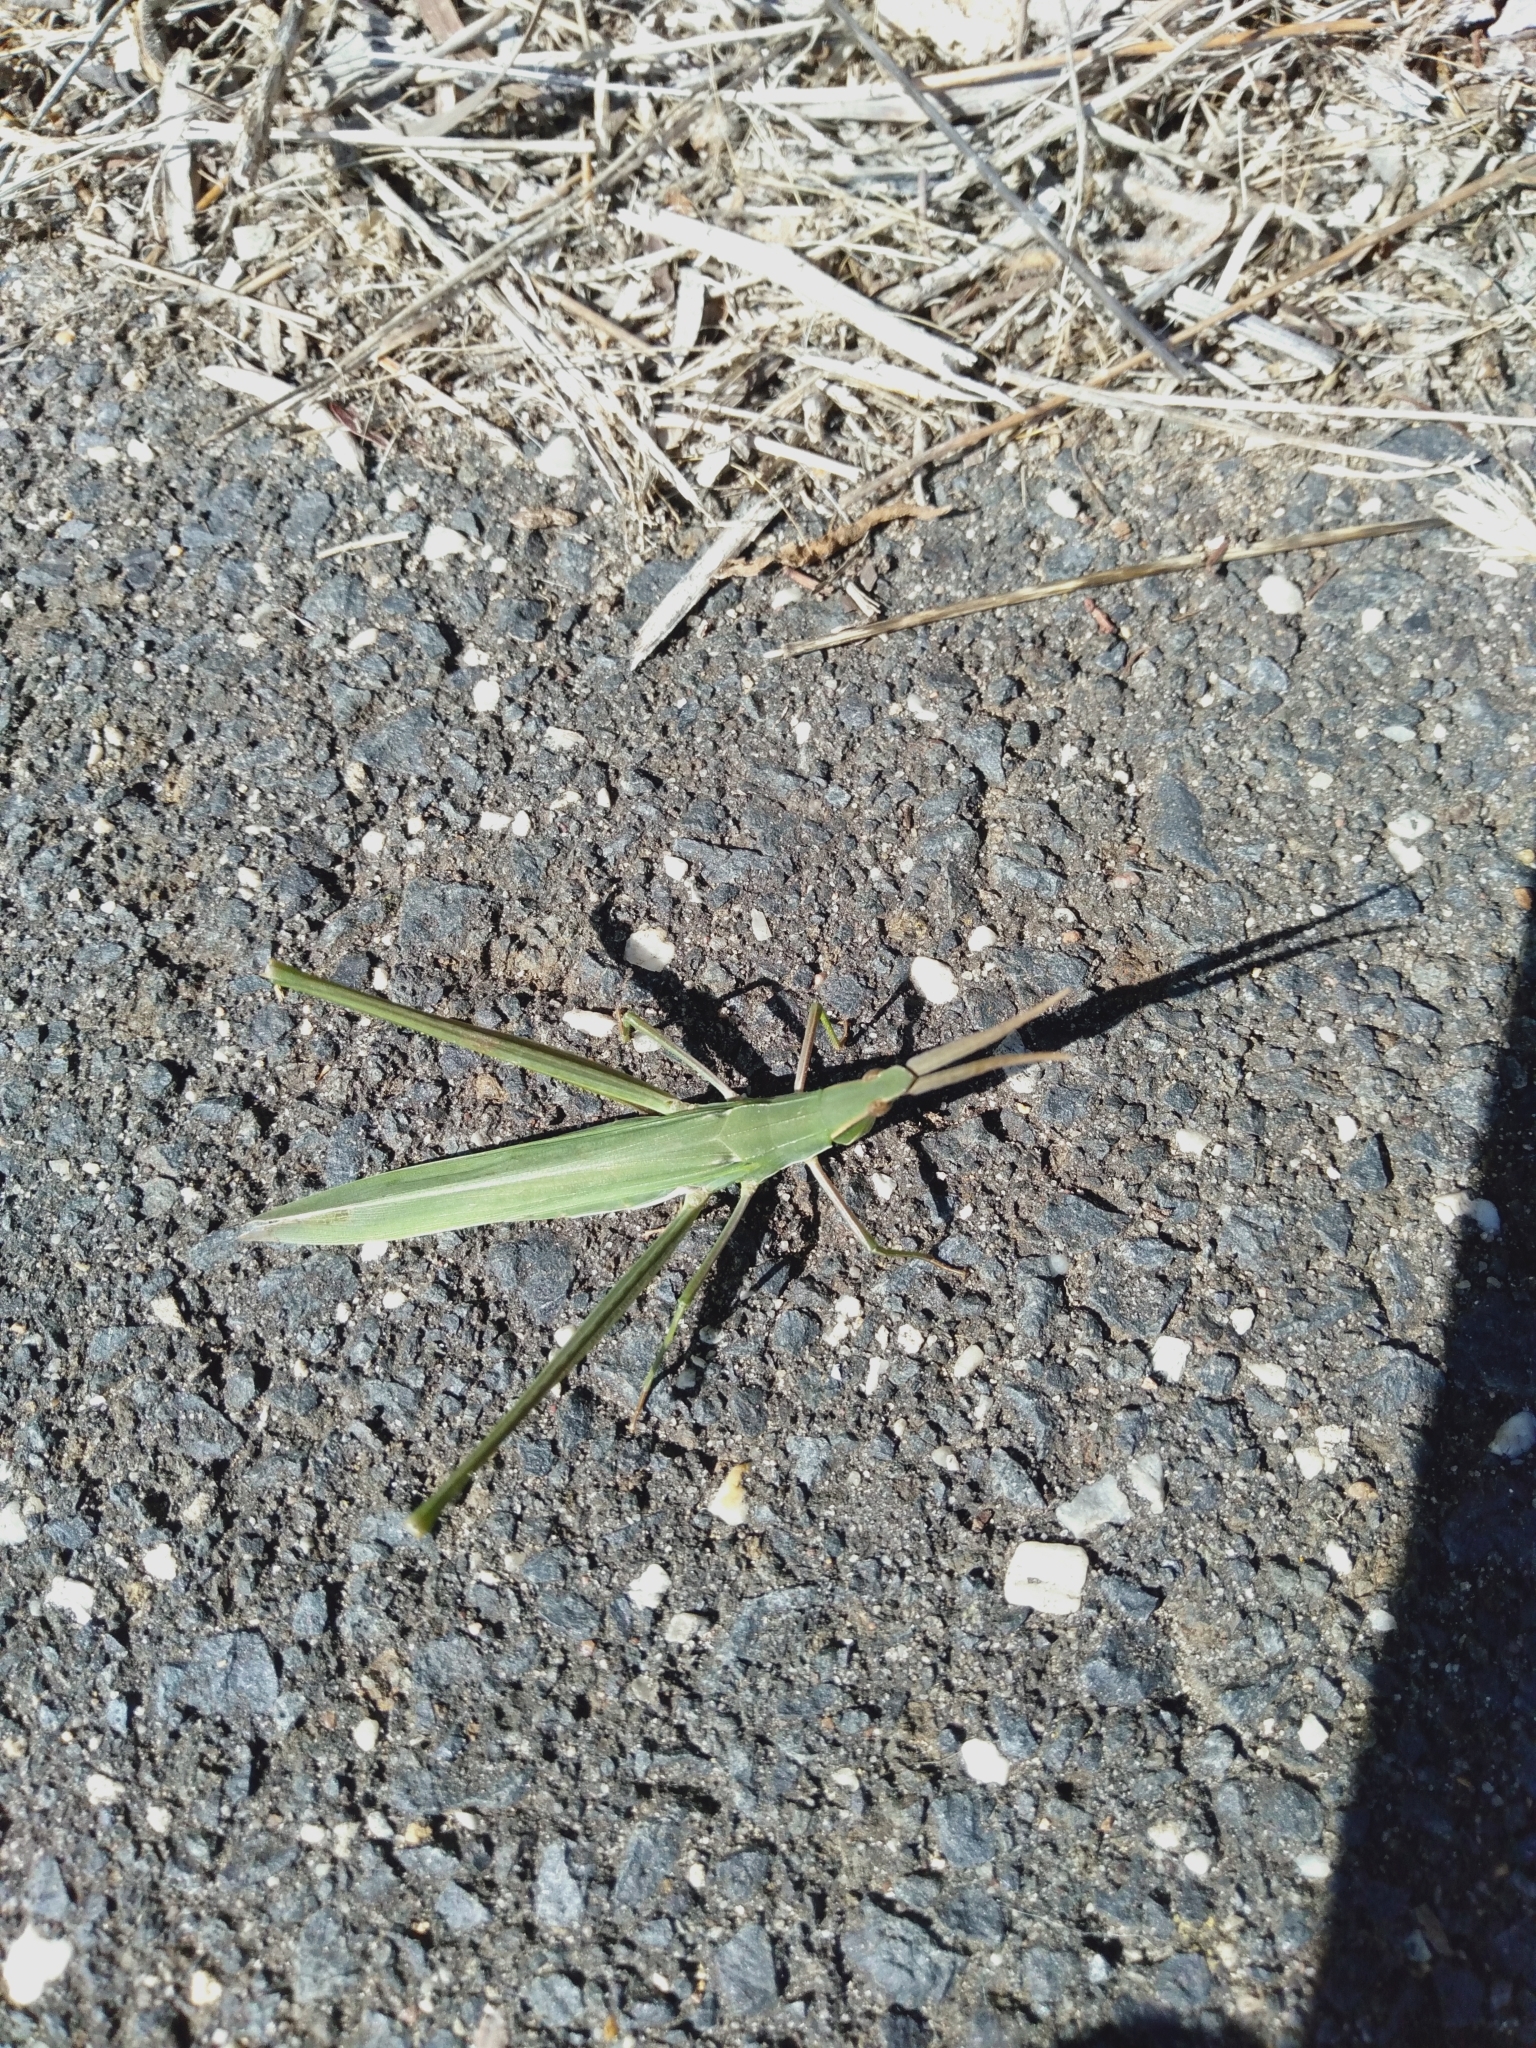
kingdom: Animalia
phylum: Arthropoda
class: Insecta
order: Orthoptera
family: Acrididae
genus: Acrida
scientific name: Acrida conica
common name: Giant green slantface
